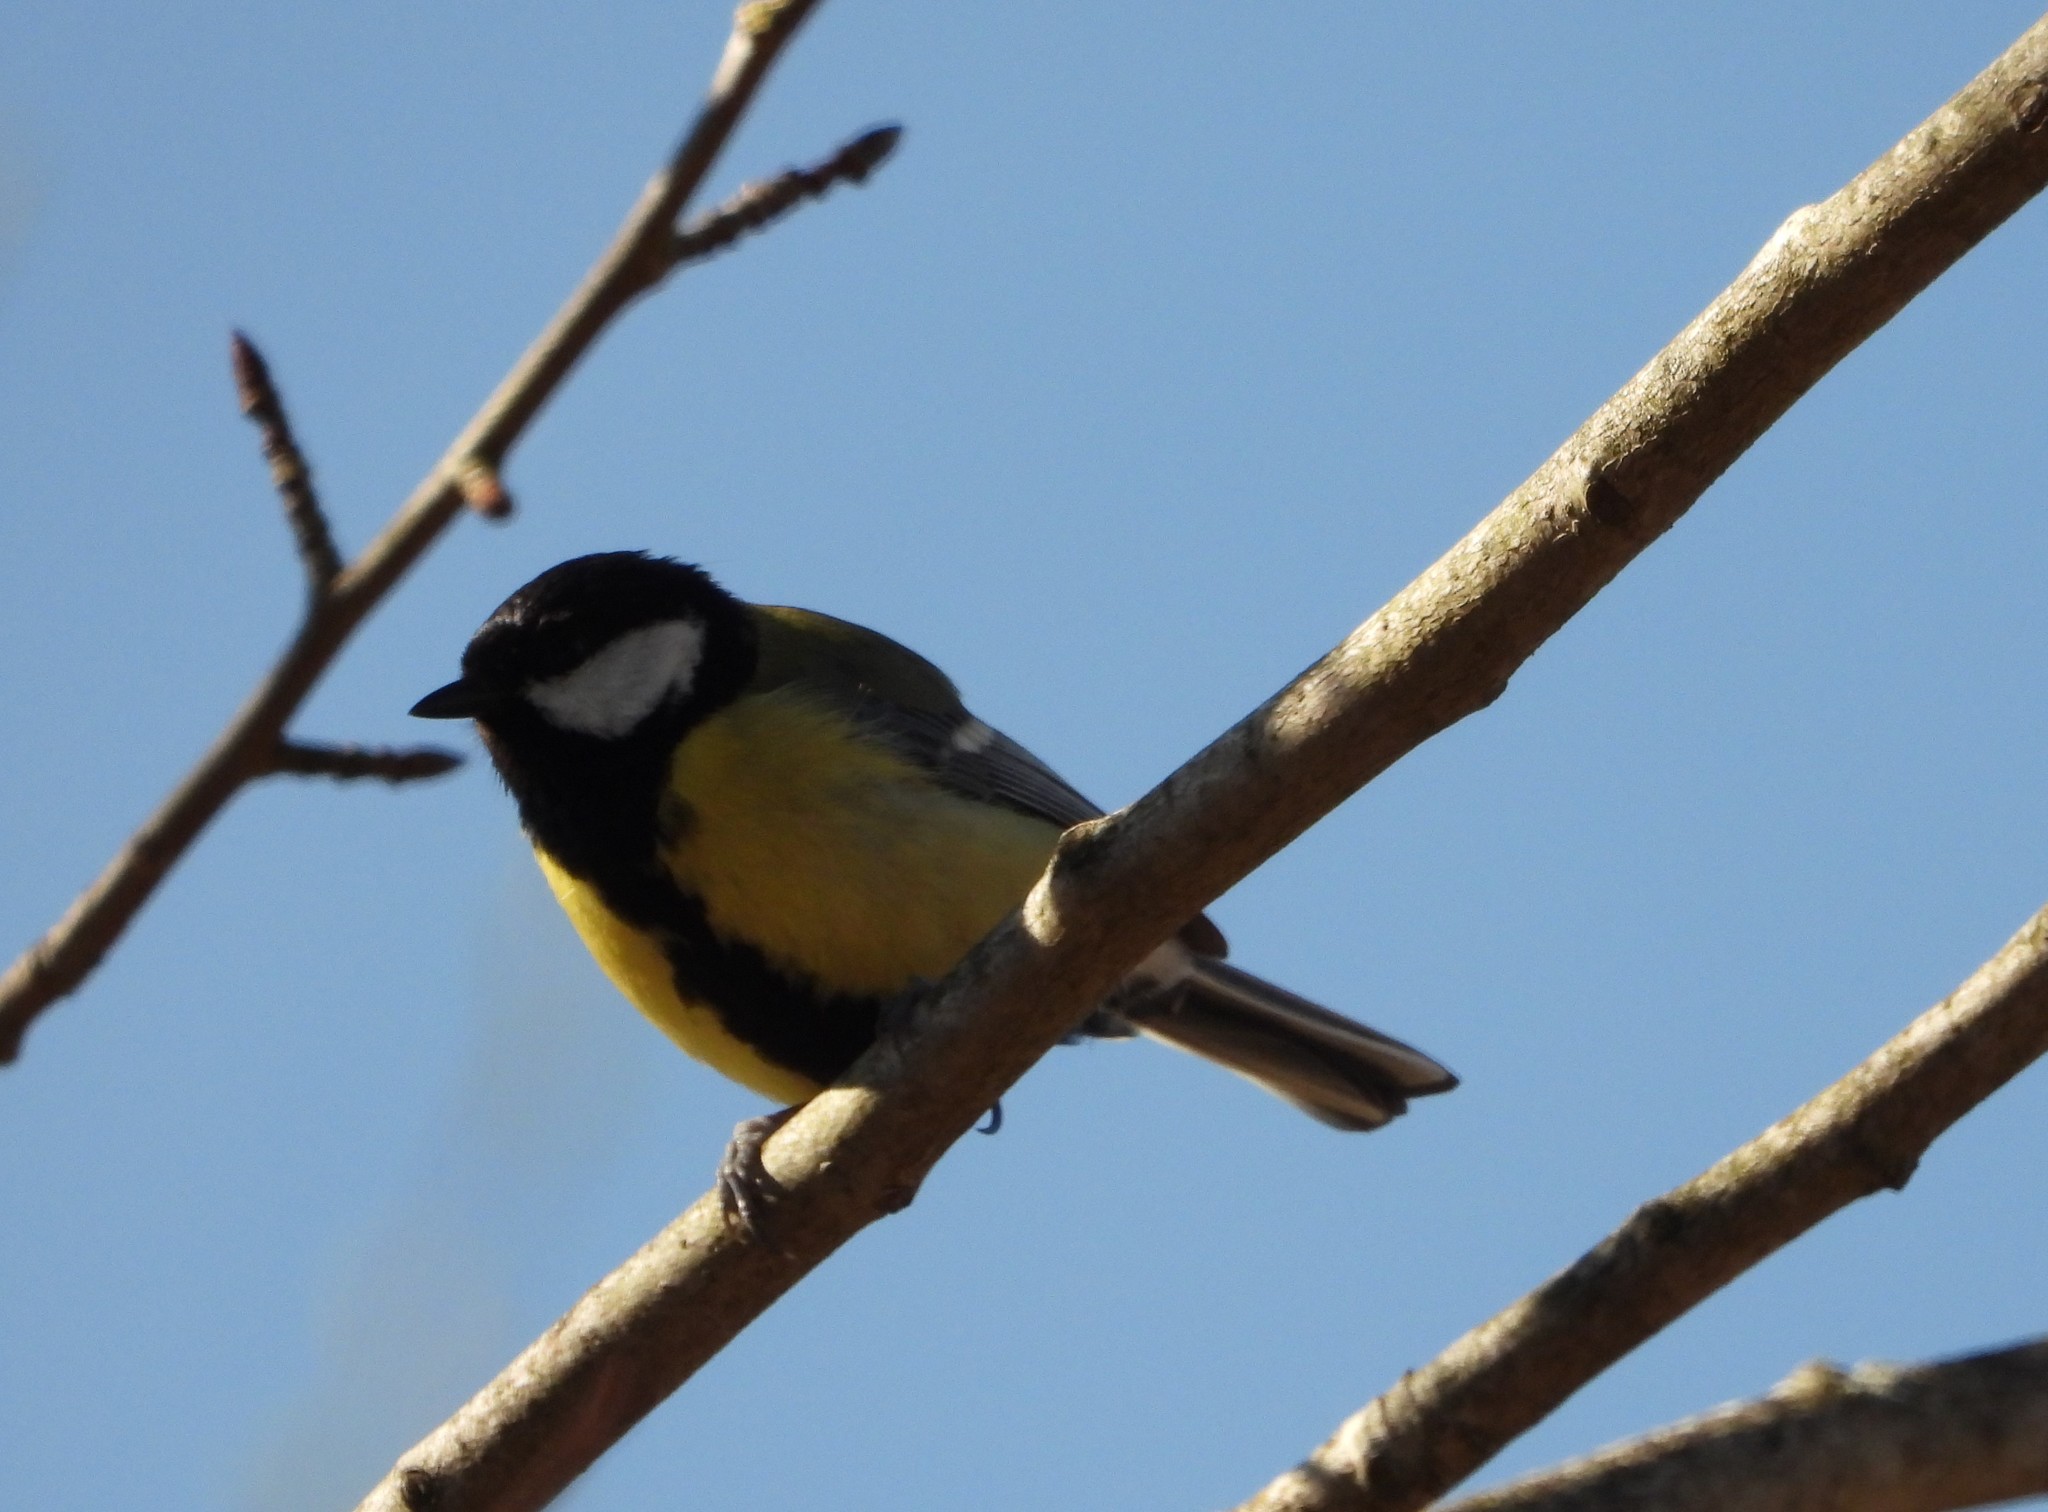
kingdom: Animalia
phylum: Chordata
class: Aves
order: Passeriformes
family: Paridae
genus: Parus
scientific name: Parus major
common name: Great tit
